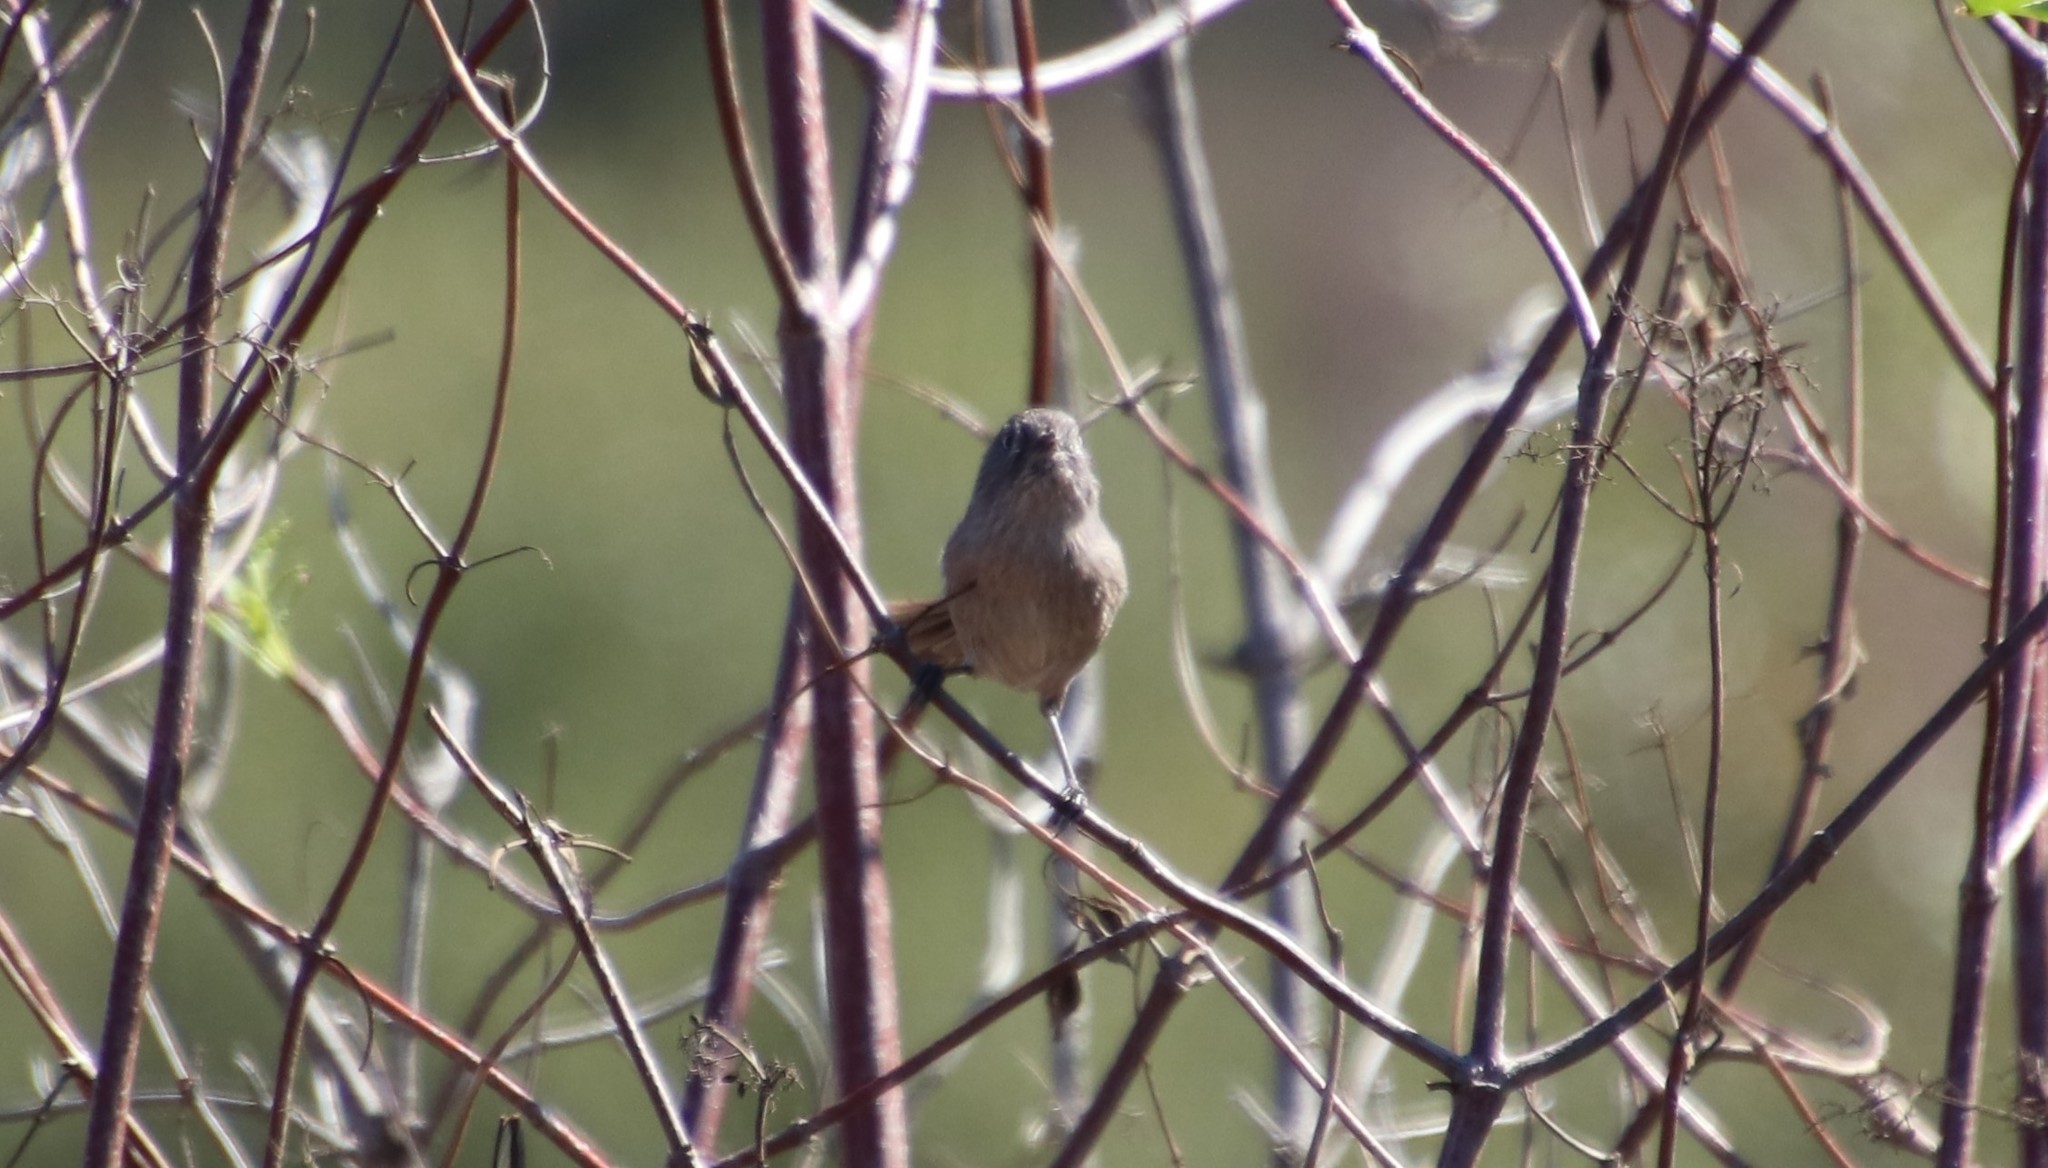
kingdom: Animalia
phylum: Chordata
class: Aves
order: Passeriformes
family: Sylviidae
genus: Chamaea
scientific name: Chamaea fasciata
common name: Wrentit
